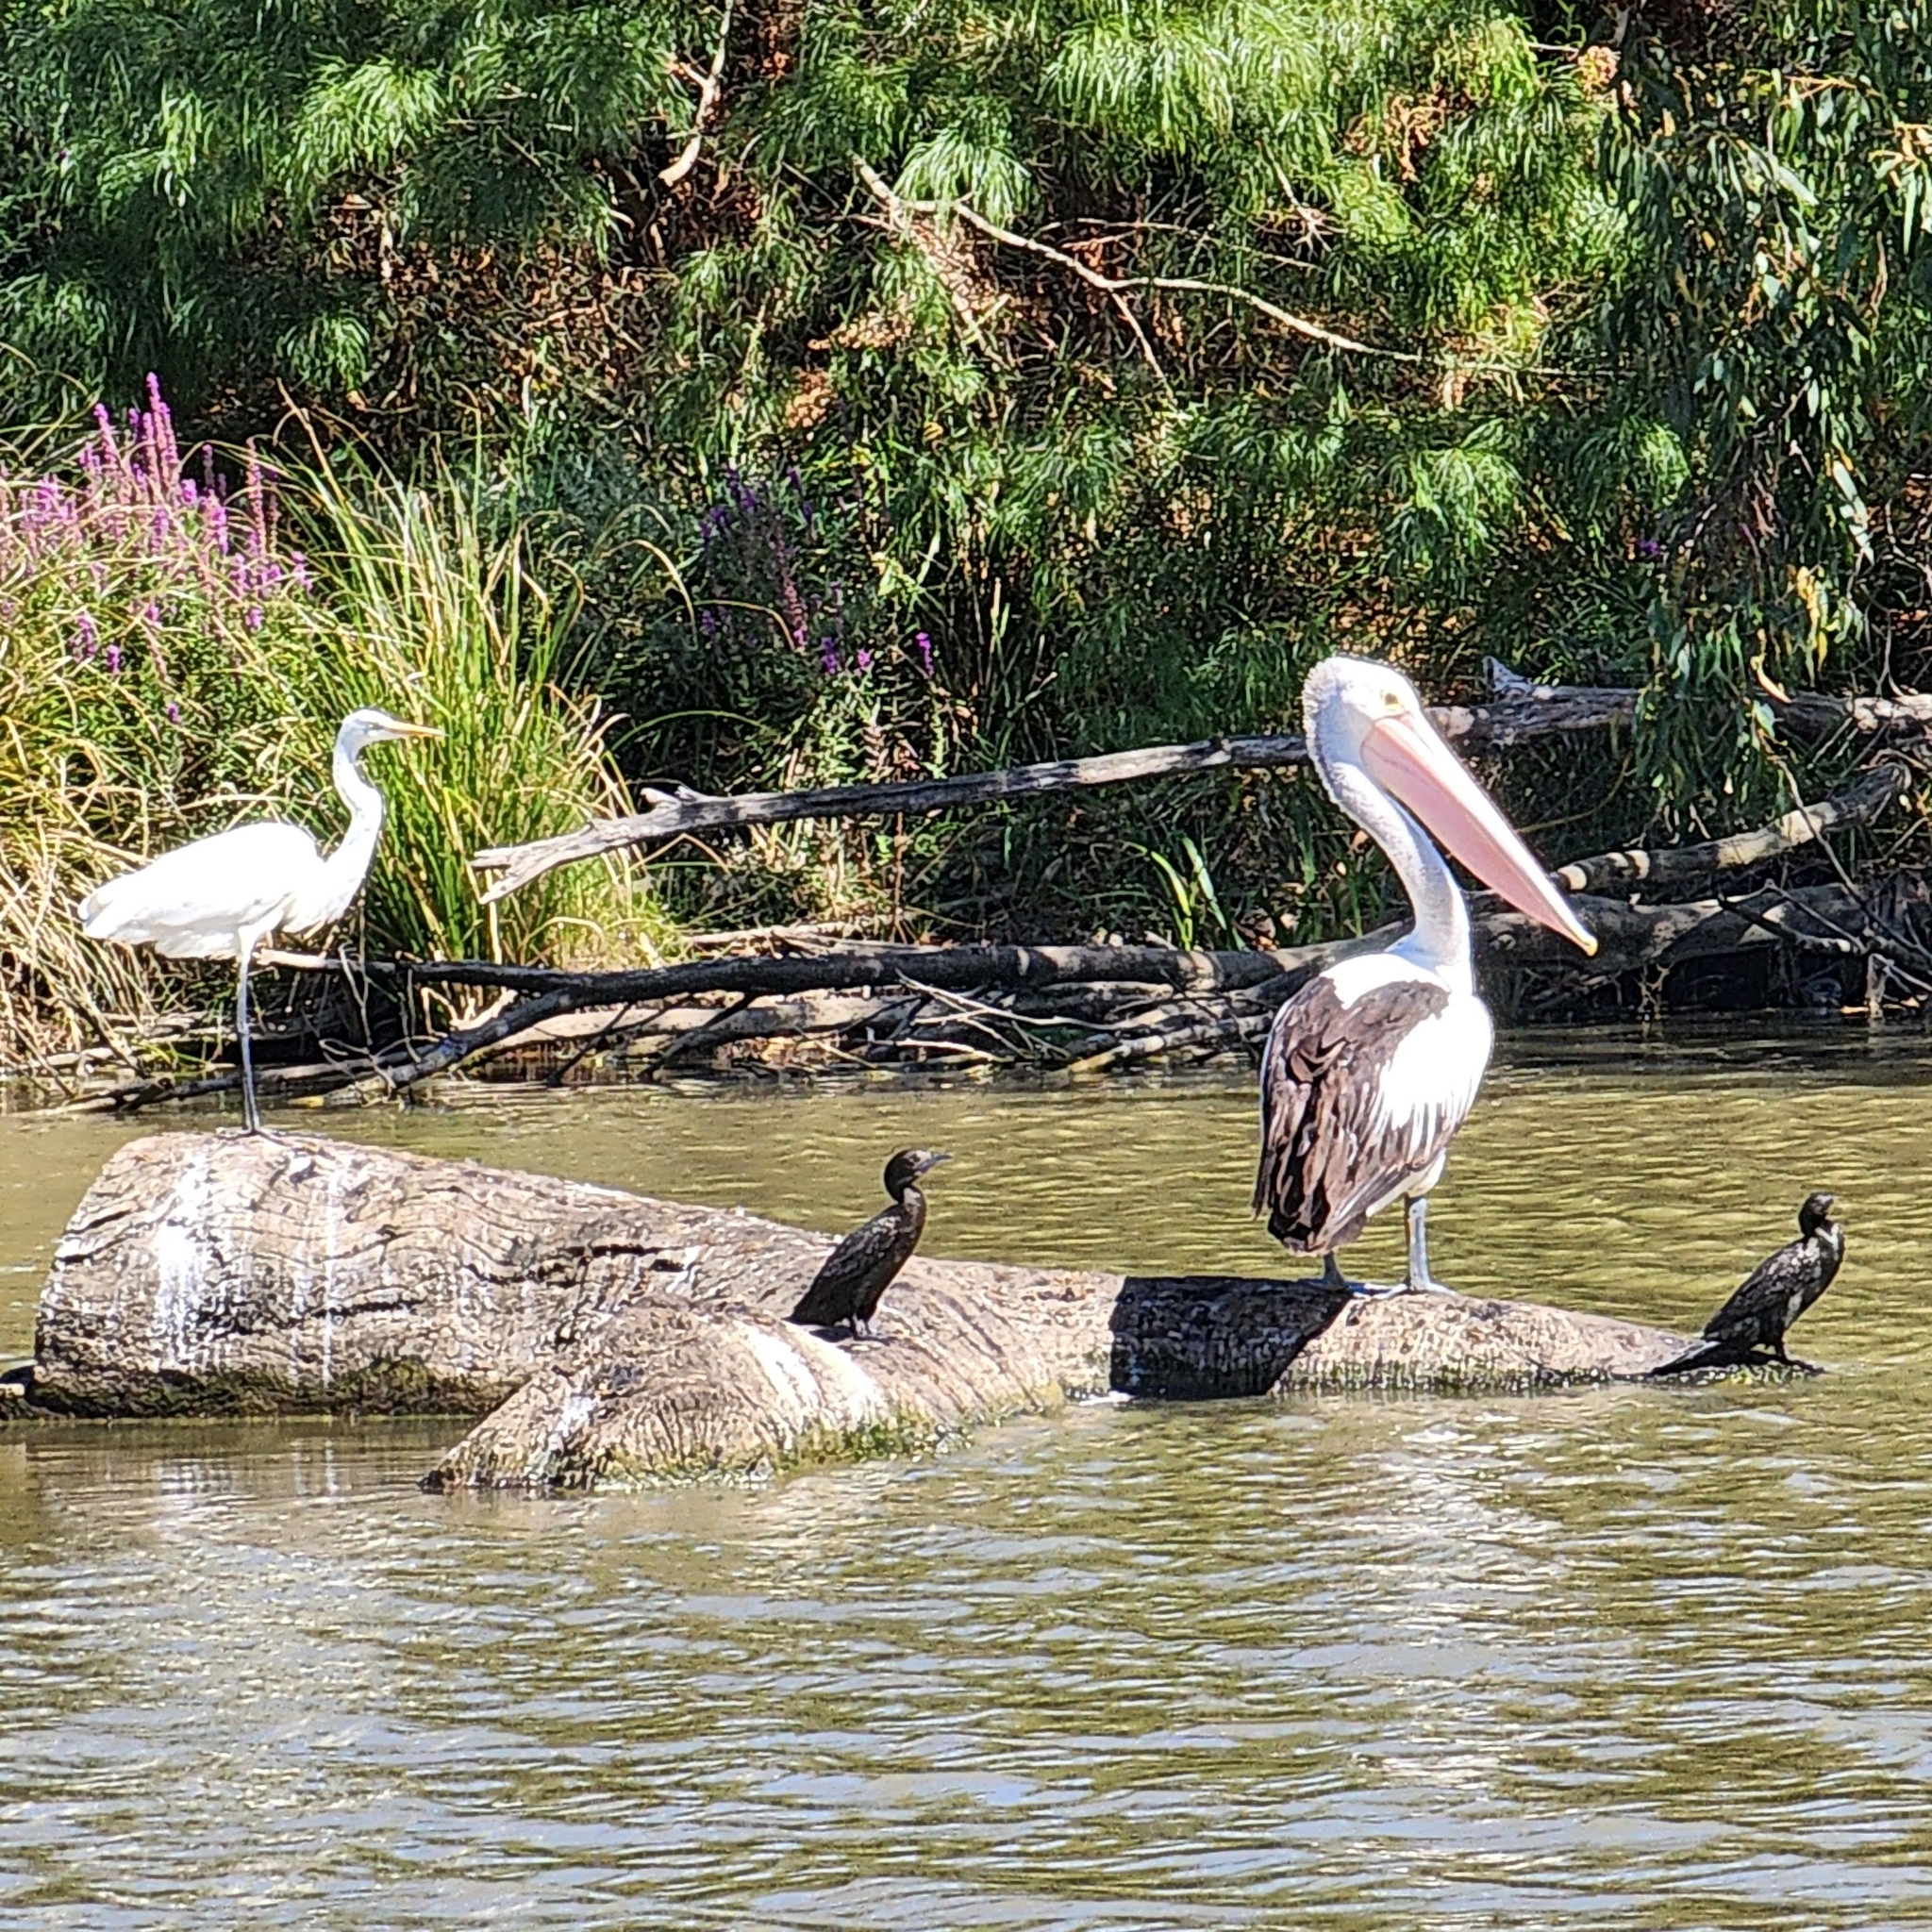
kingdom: Animalia
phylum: Chordata
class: Aves
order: Suliformes
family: Phalacrocoracidae
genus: Phalacrocorax
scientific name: Phalacrocorax sulcirostris
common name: Little black cormorant
